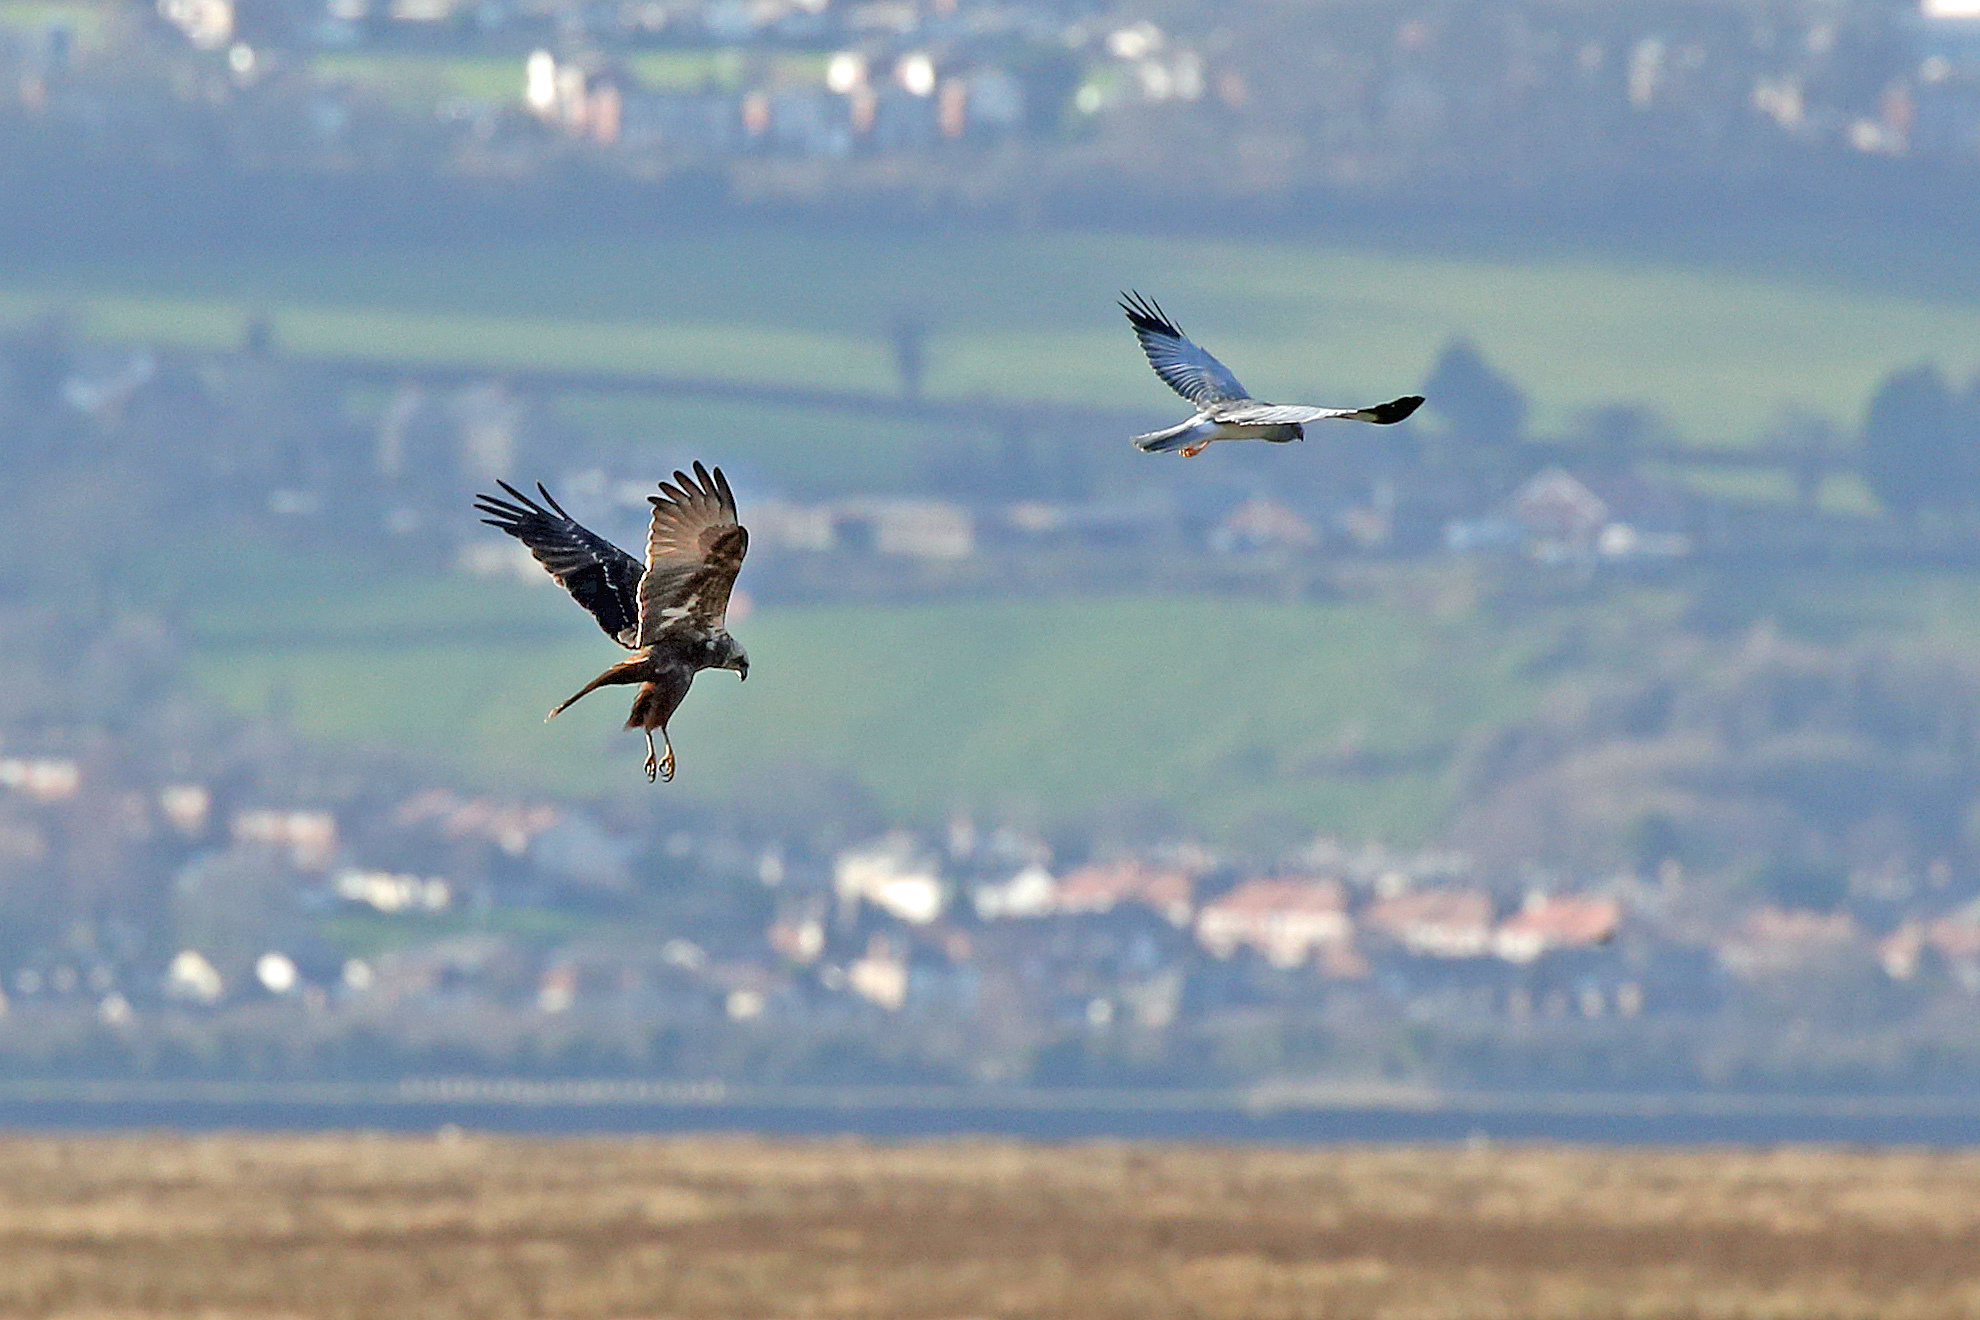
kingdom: Animalia
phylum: Chordata
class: Aves
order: Accipitriformes
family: Accipitridae
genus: Circus
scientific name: Circus aeruginosus
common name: Western marsh harrier
